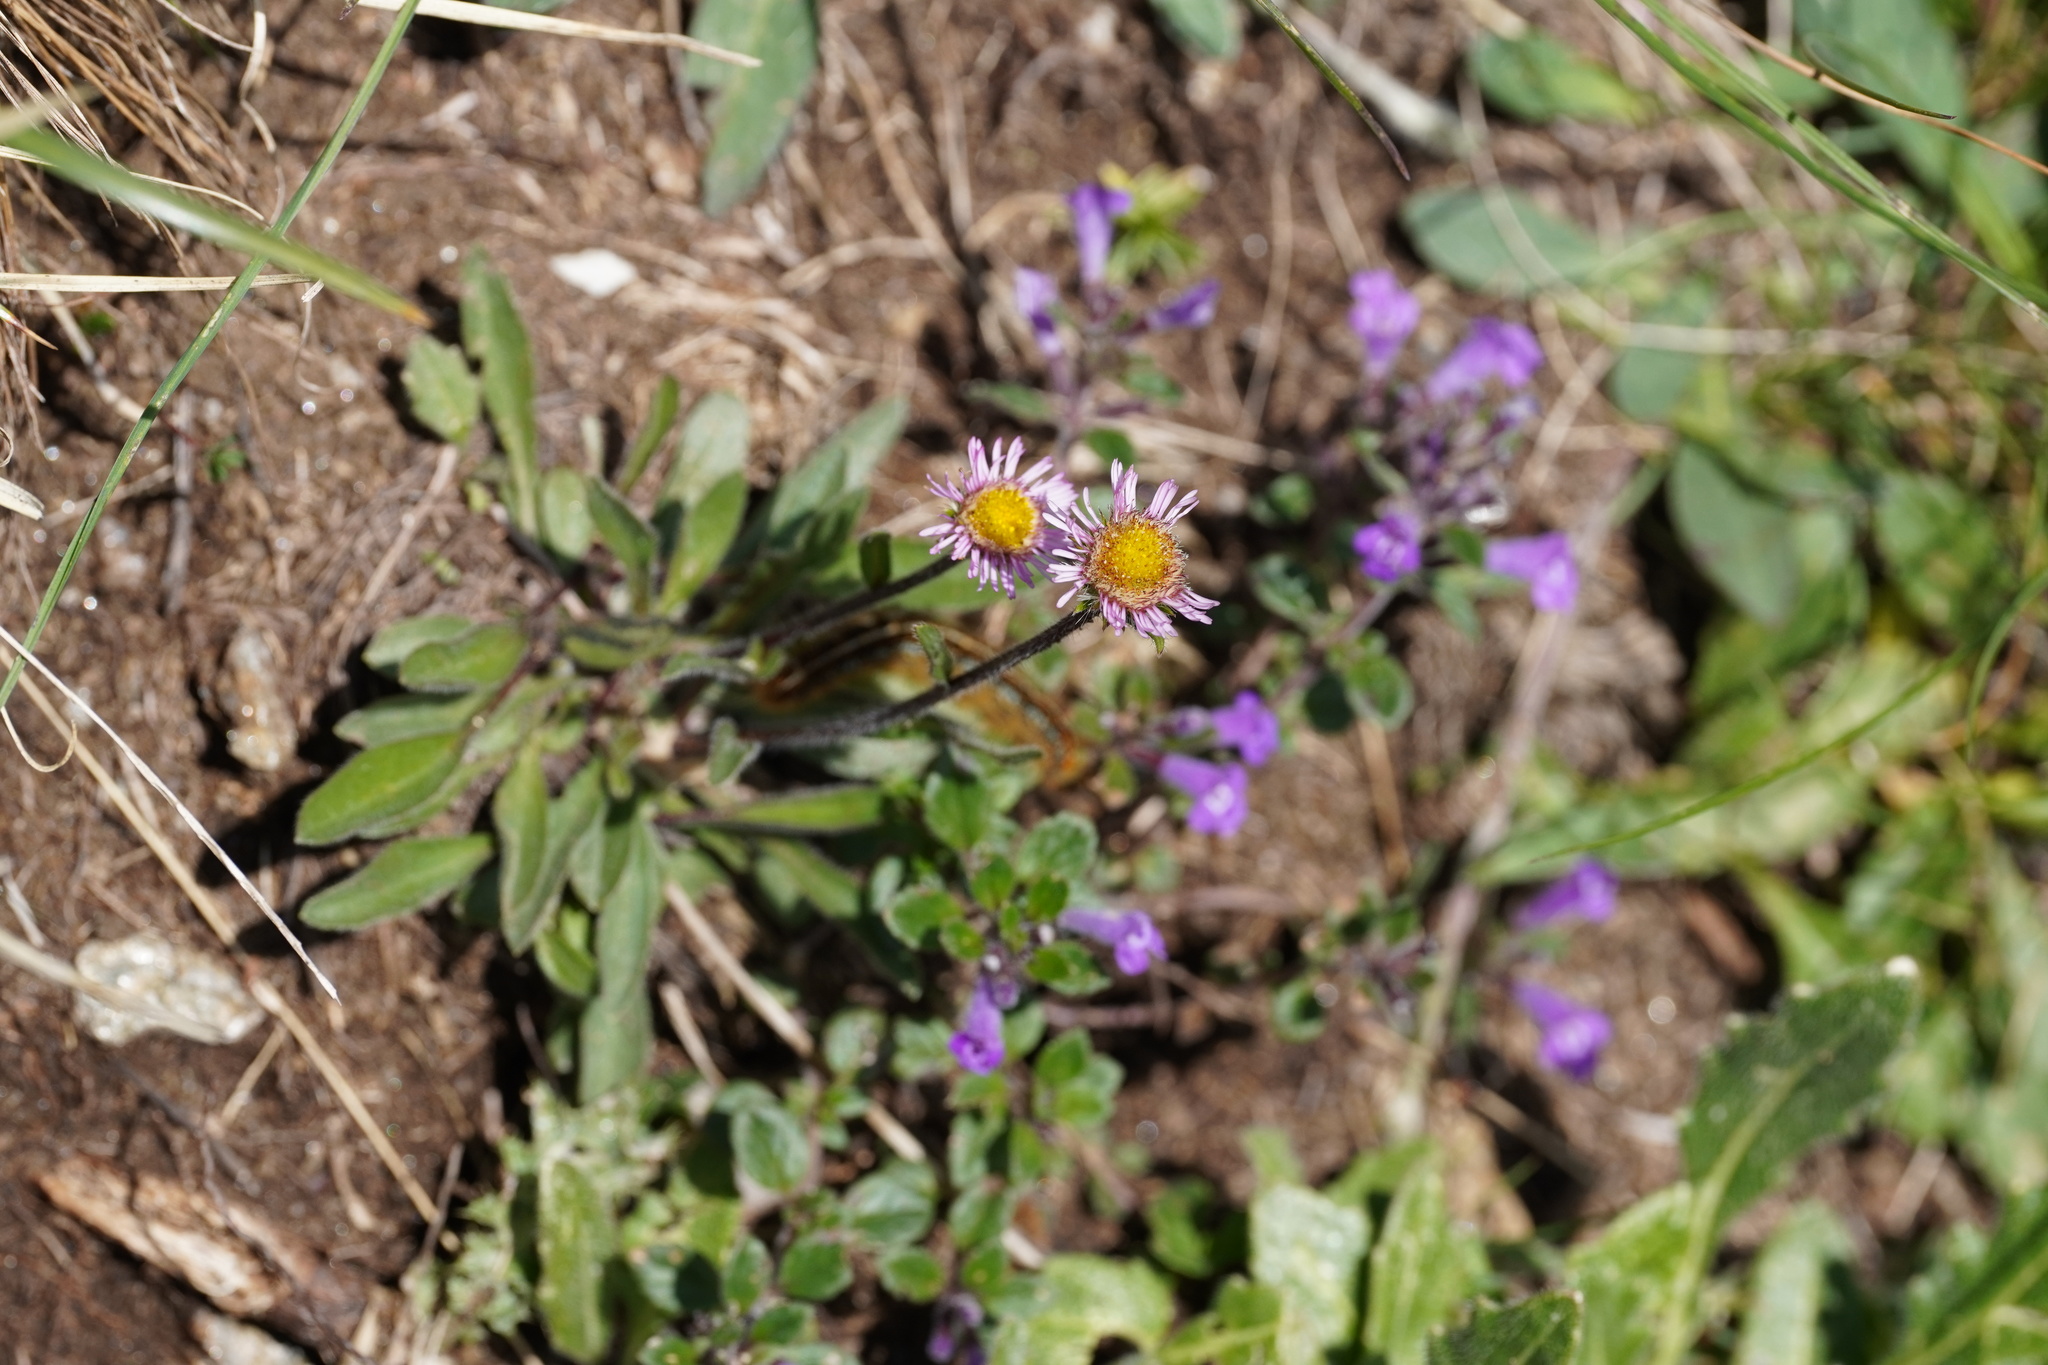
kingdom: Plantae
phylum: Tracheophyta
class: Magnoliopsida
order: Asterales
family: Asteraceae
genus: Erigeron
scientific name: Erigeron alpinus
